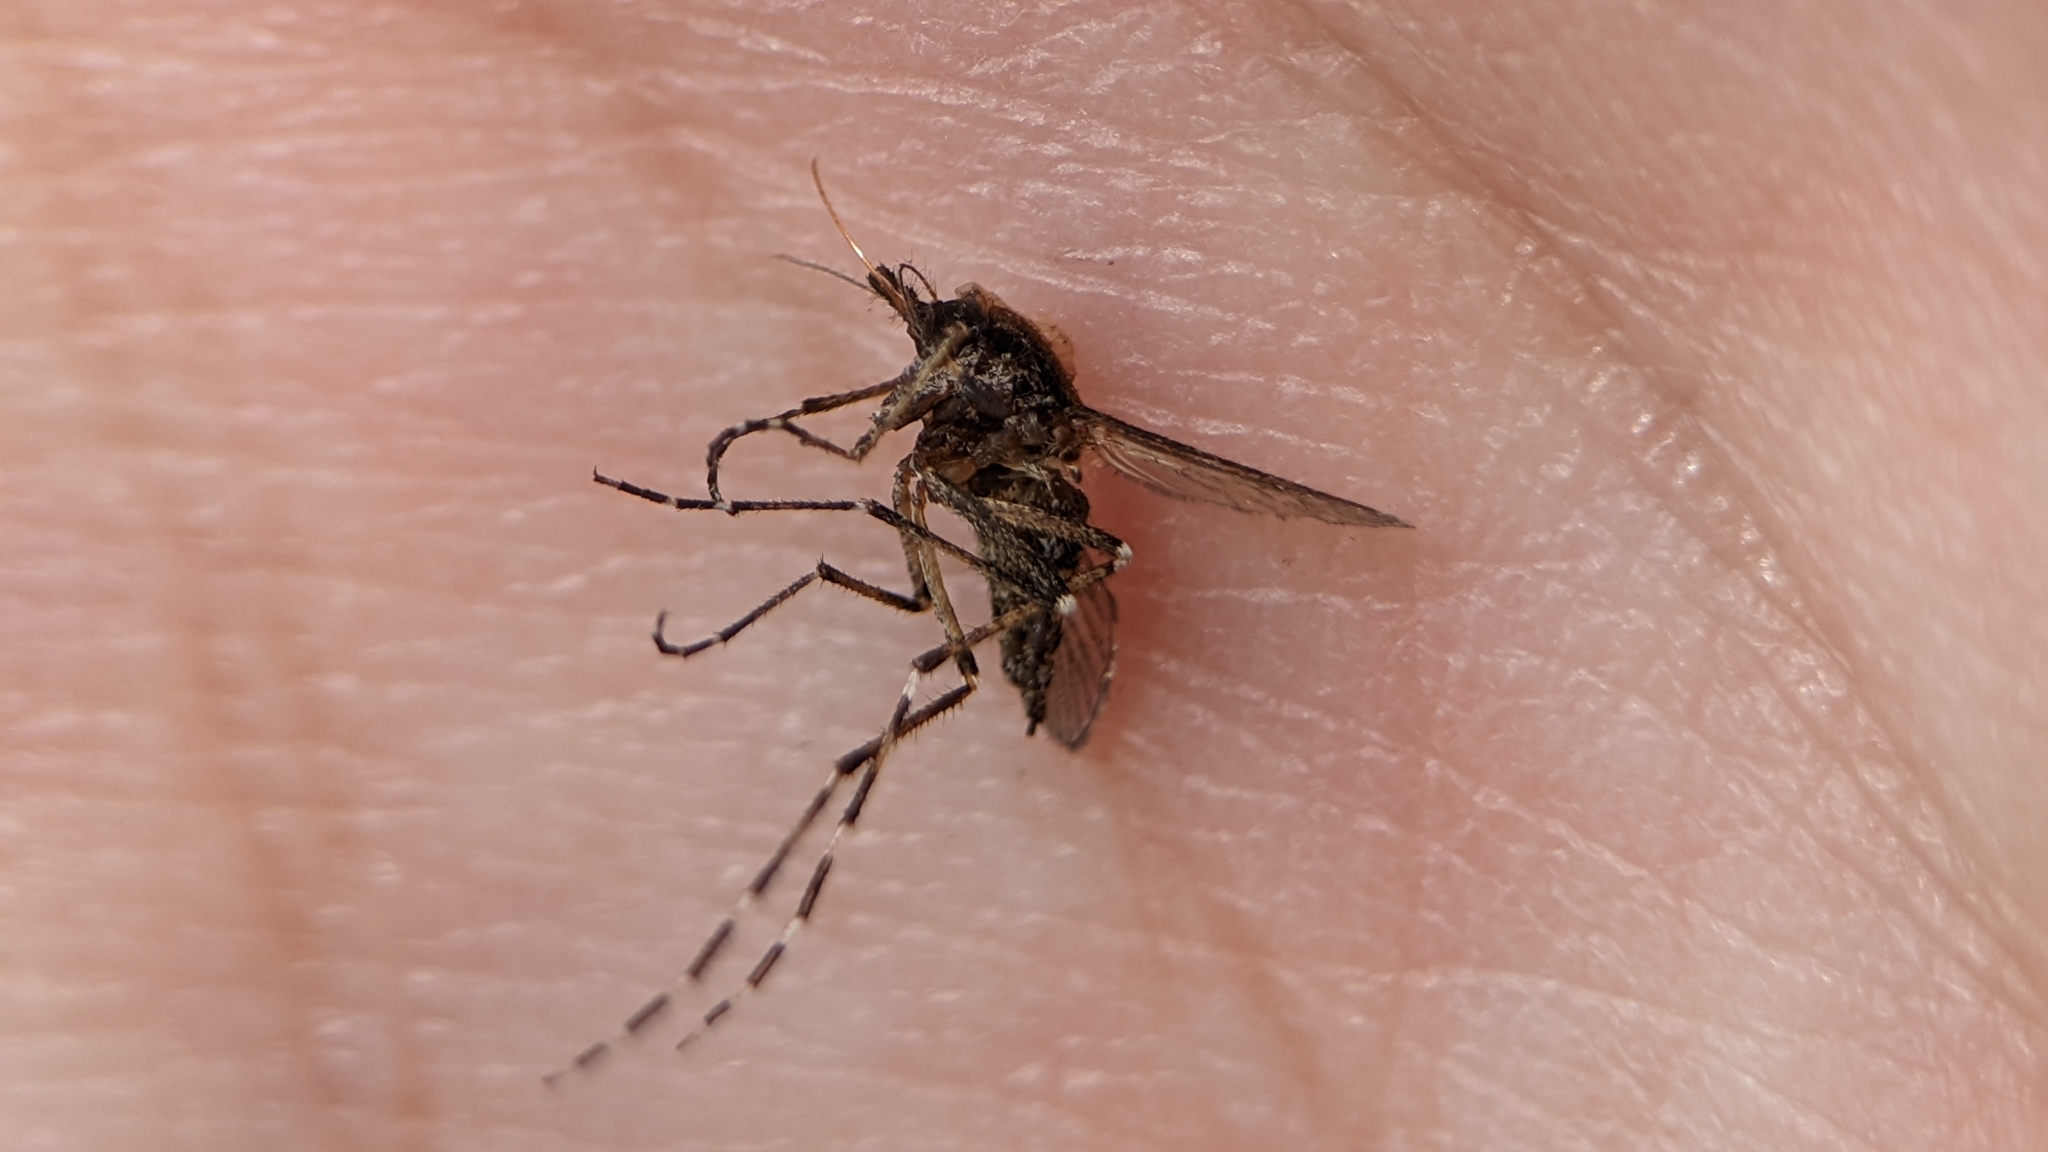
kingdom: Animalia
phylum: Arthropoda
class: Insecta
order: Diptera
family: Culicidae
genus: Aedes
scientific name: Aedes sollicitans
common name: Saltmarsh mosquito
